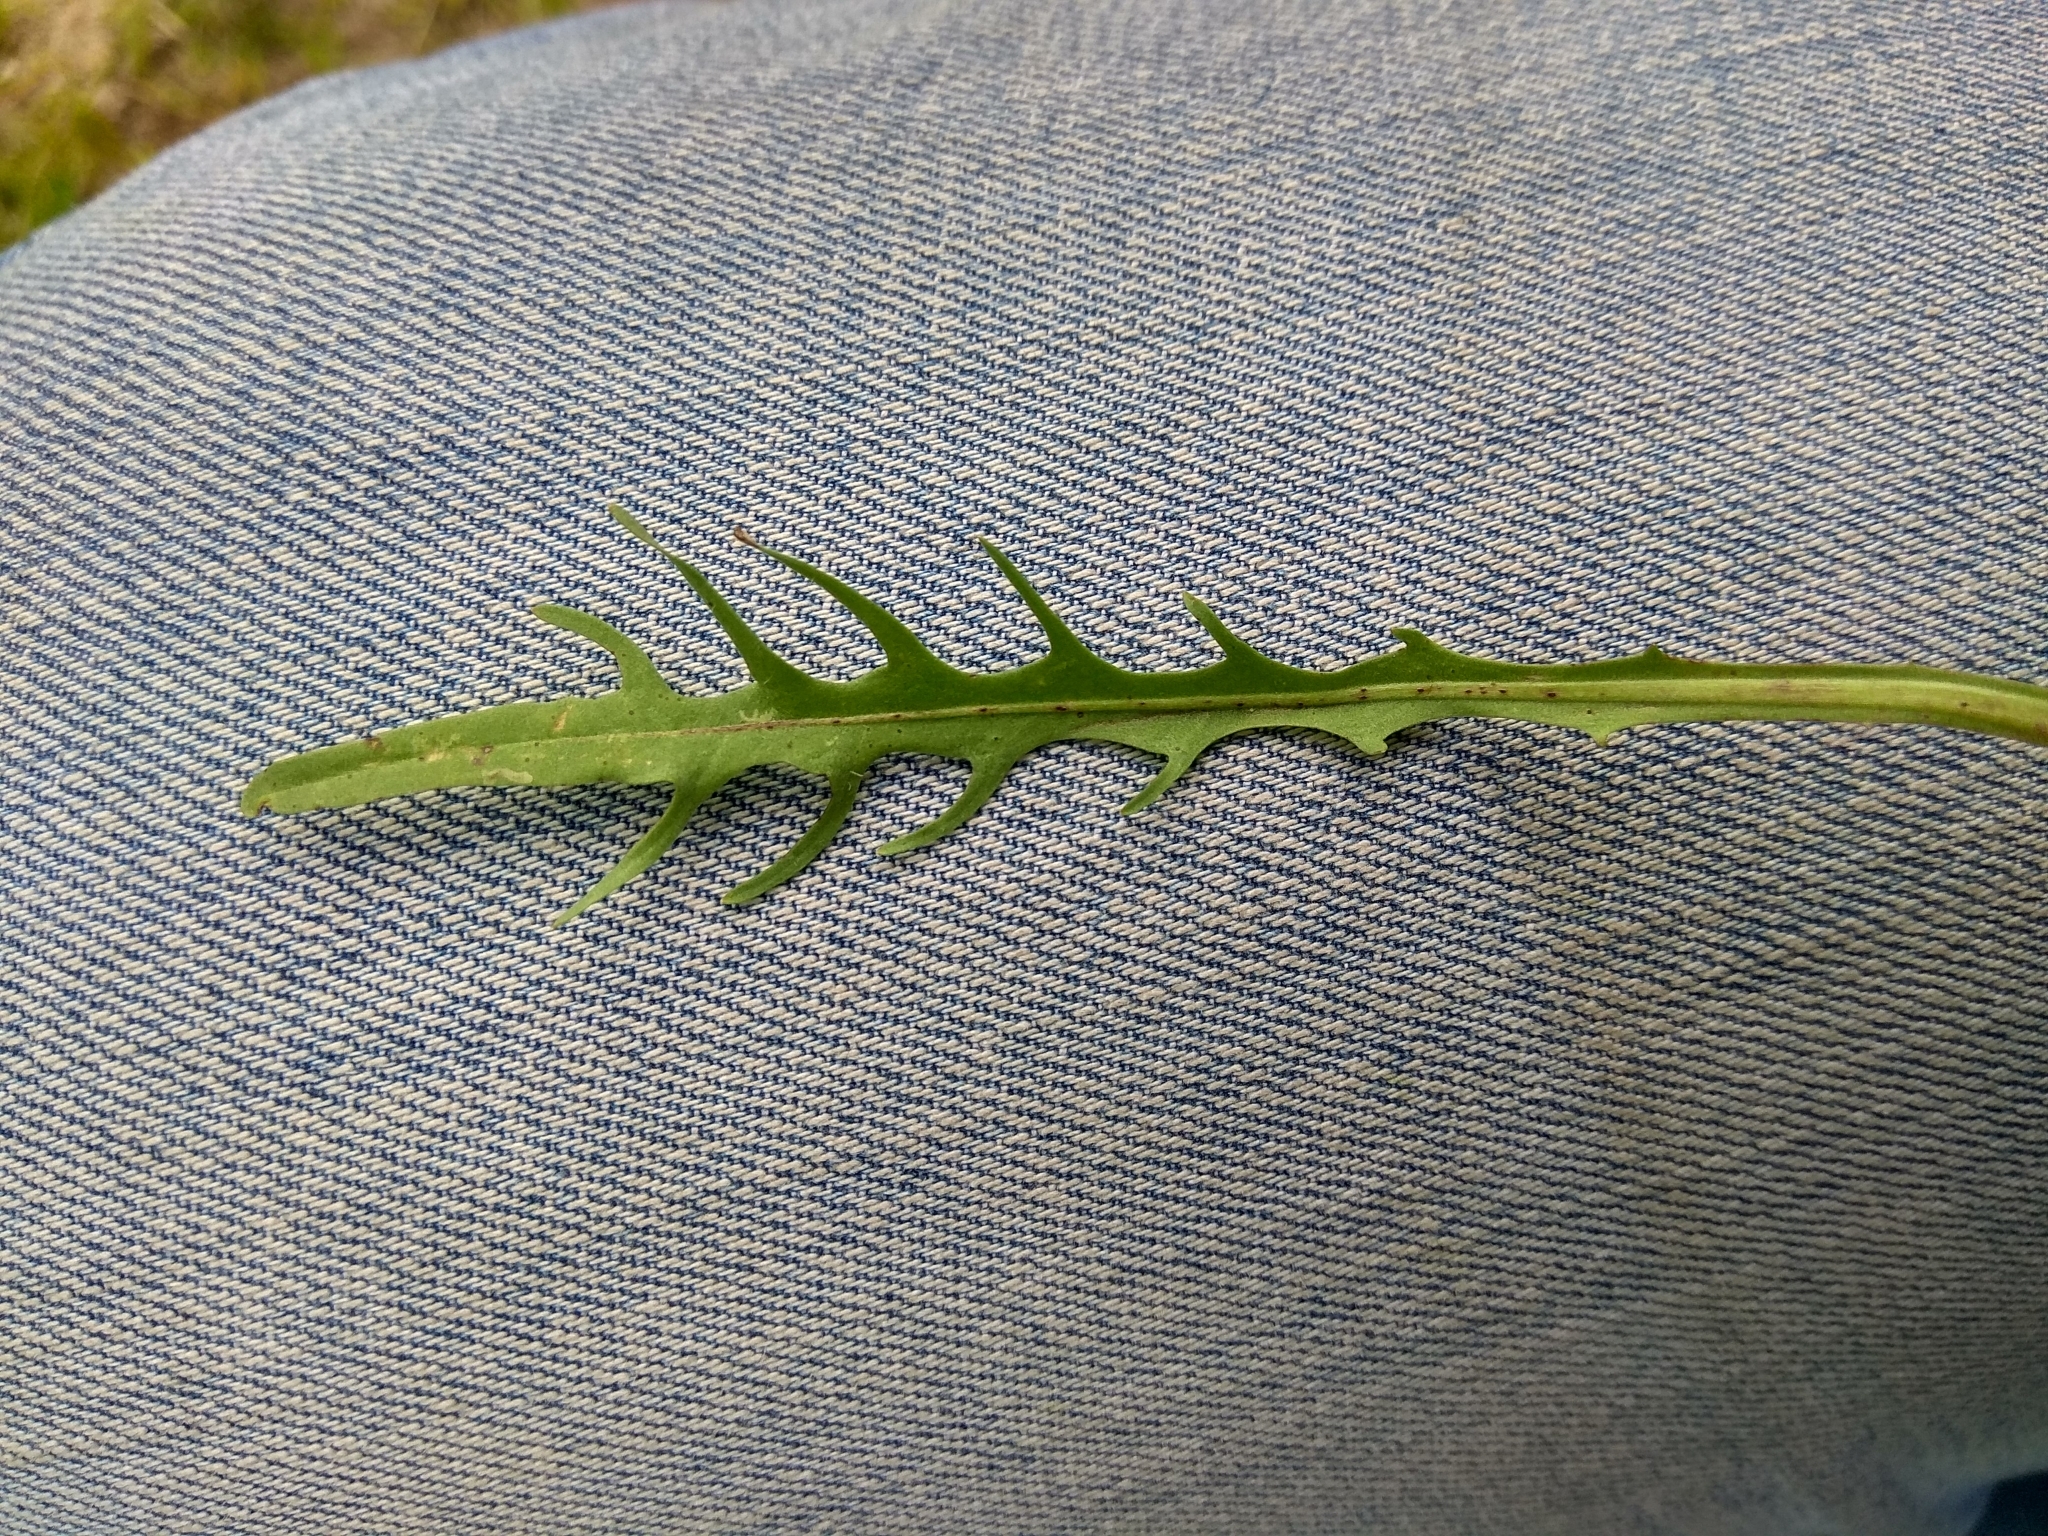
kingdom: Plantae
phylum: Tracheophyta
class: Magnoliopsida
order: Asterales
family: Asteraceae
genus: Scorzoneroides
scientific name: Scorzoneroides autumnalis
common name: Autumn hawkbit
